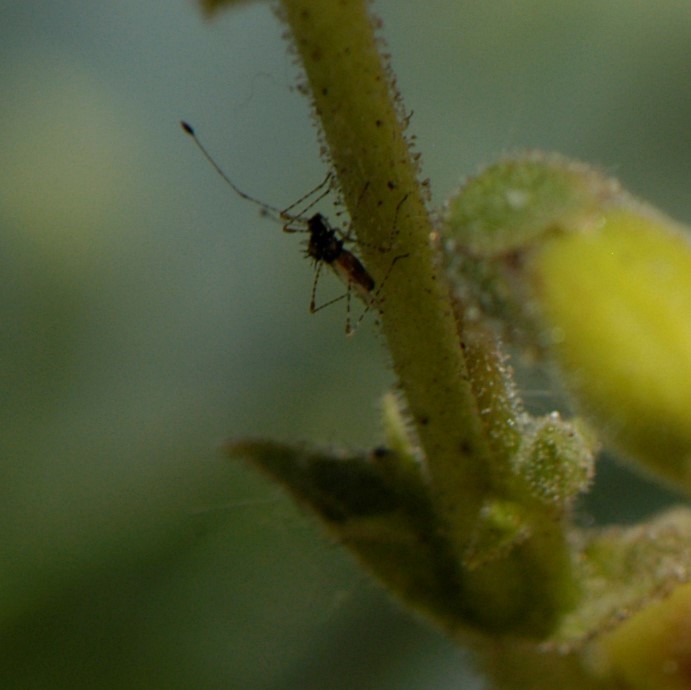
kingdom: Animalia
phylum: Arthropoda
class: Insecta
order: Hemiptera
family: Berytidae
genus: Pronotacantha
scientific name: Pronotacantha annulata
